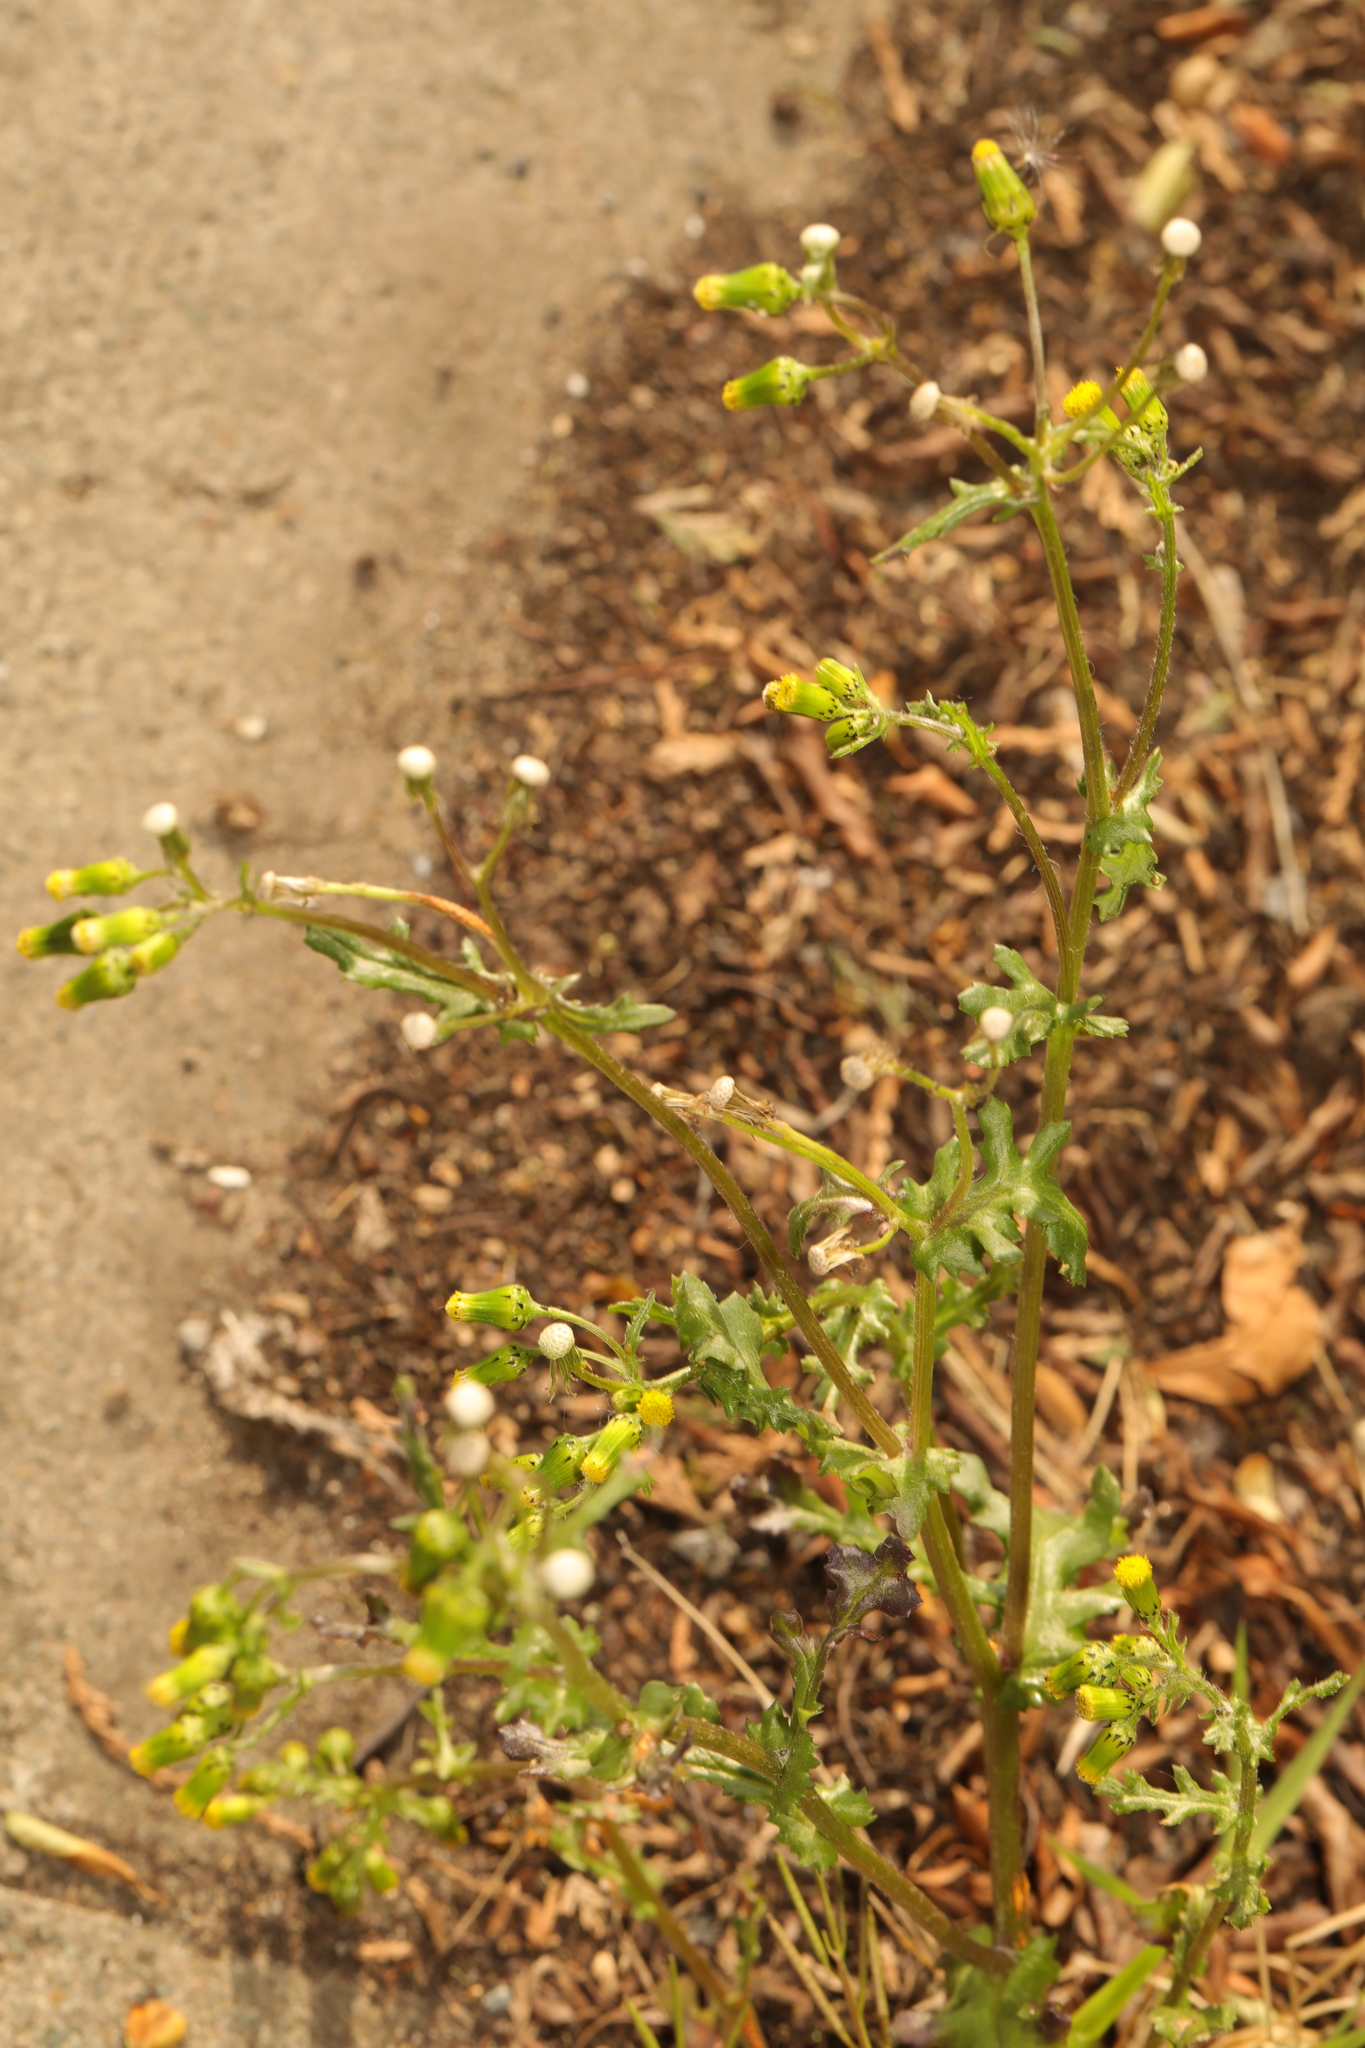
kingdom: Plantae
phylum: Tracheophyta
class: Magnoliopsida
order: Asterales
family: Asteraceae
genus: Senecio
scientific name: Senecio vulgaris
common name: Old-man-in-the-spring
